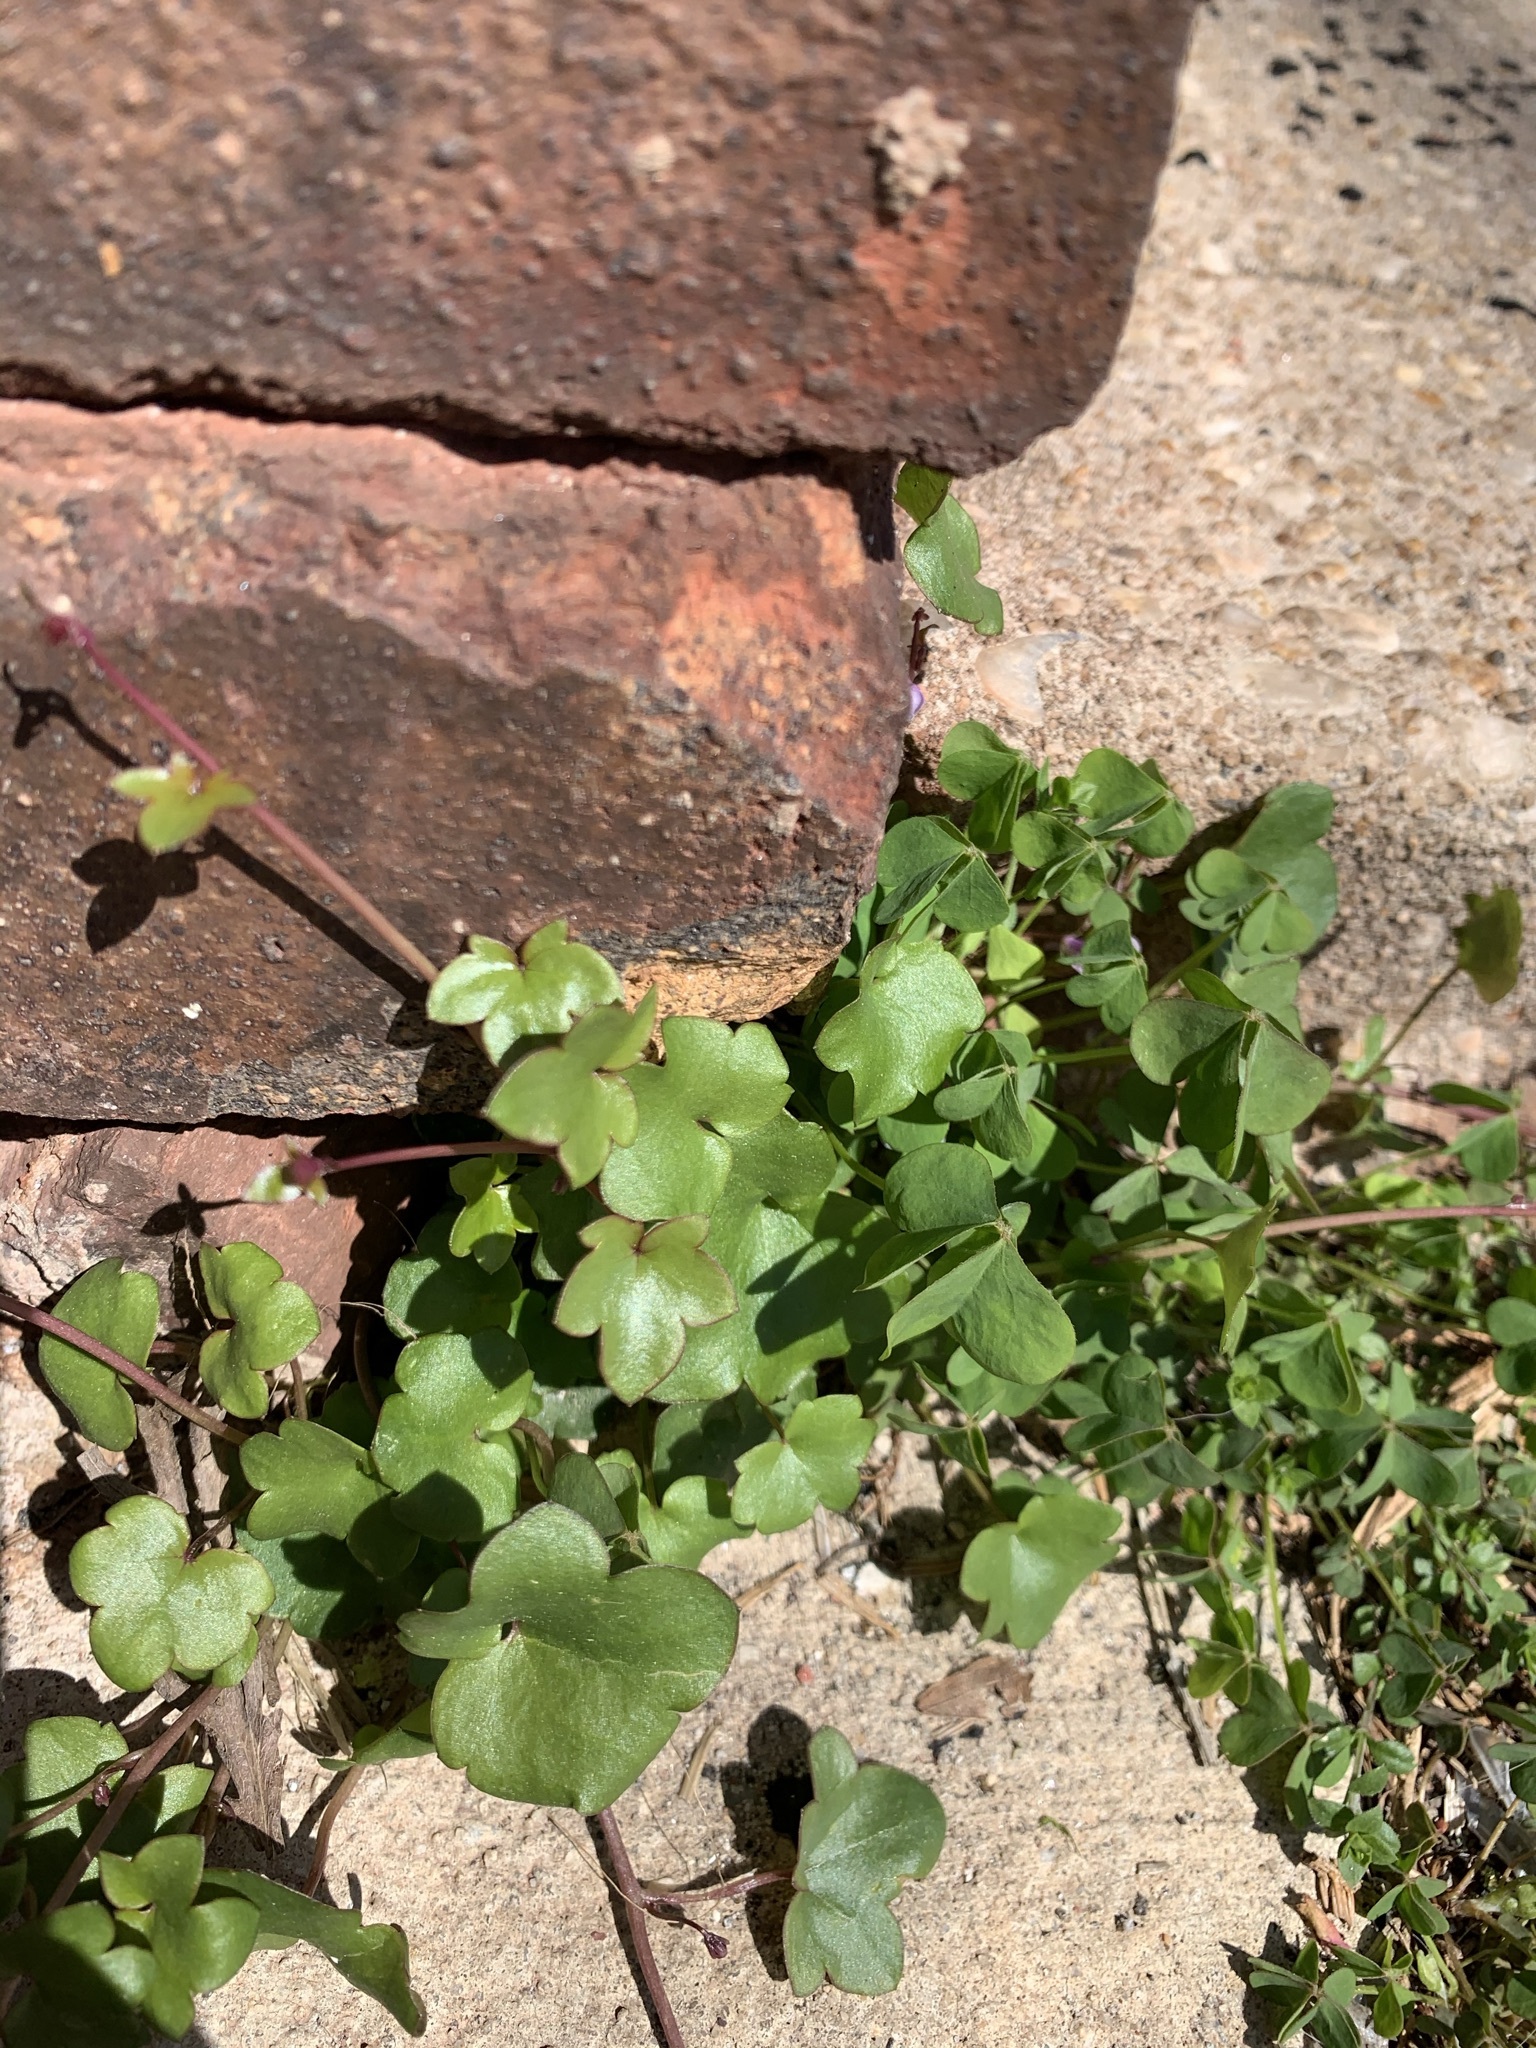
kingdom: Plantae
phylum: Tracheophyta
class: Magnoliopsida
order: Lamiales
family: Plantaginaceae
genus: Cymbalaria
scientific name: Cymbalaria muralis
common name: Ivy-leaved toadflax
